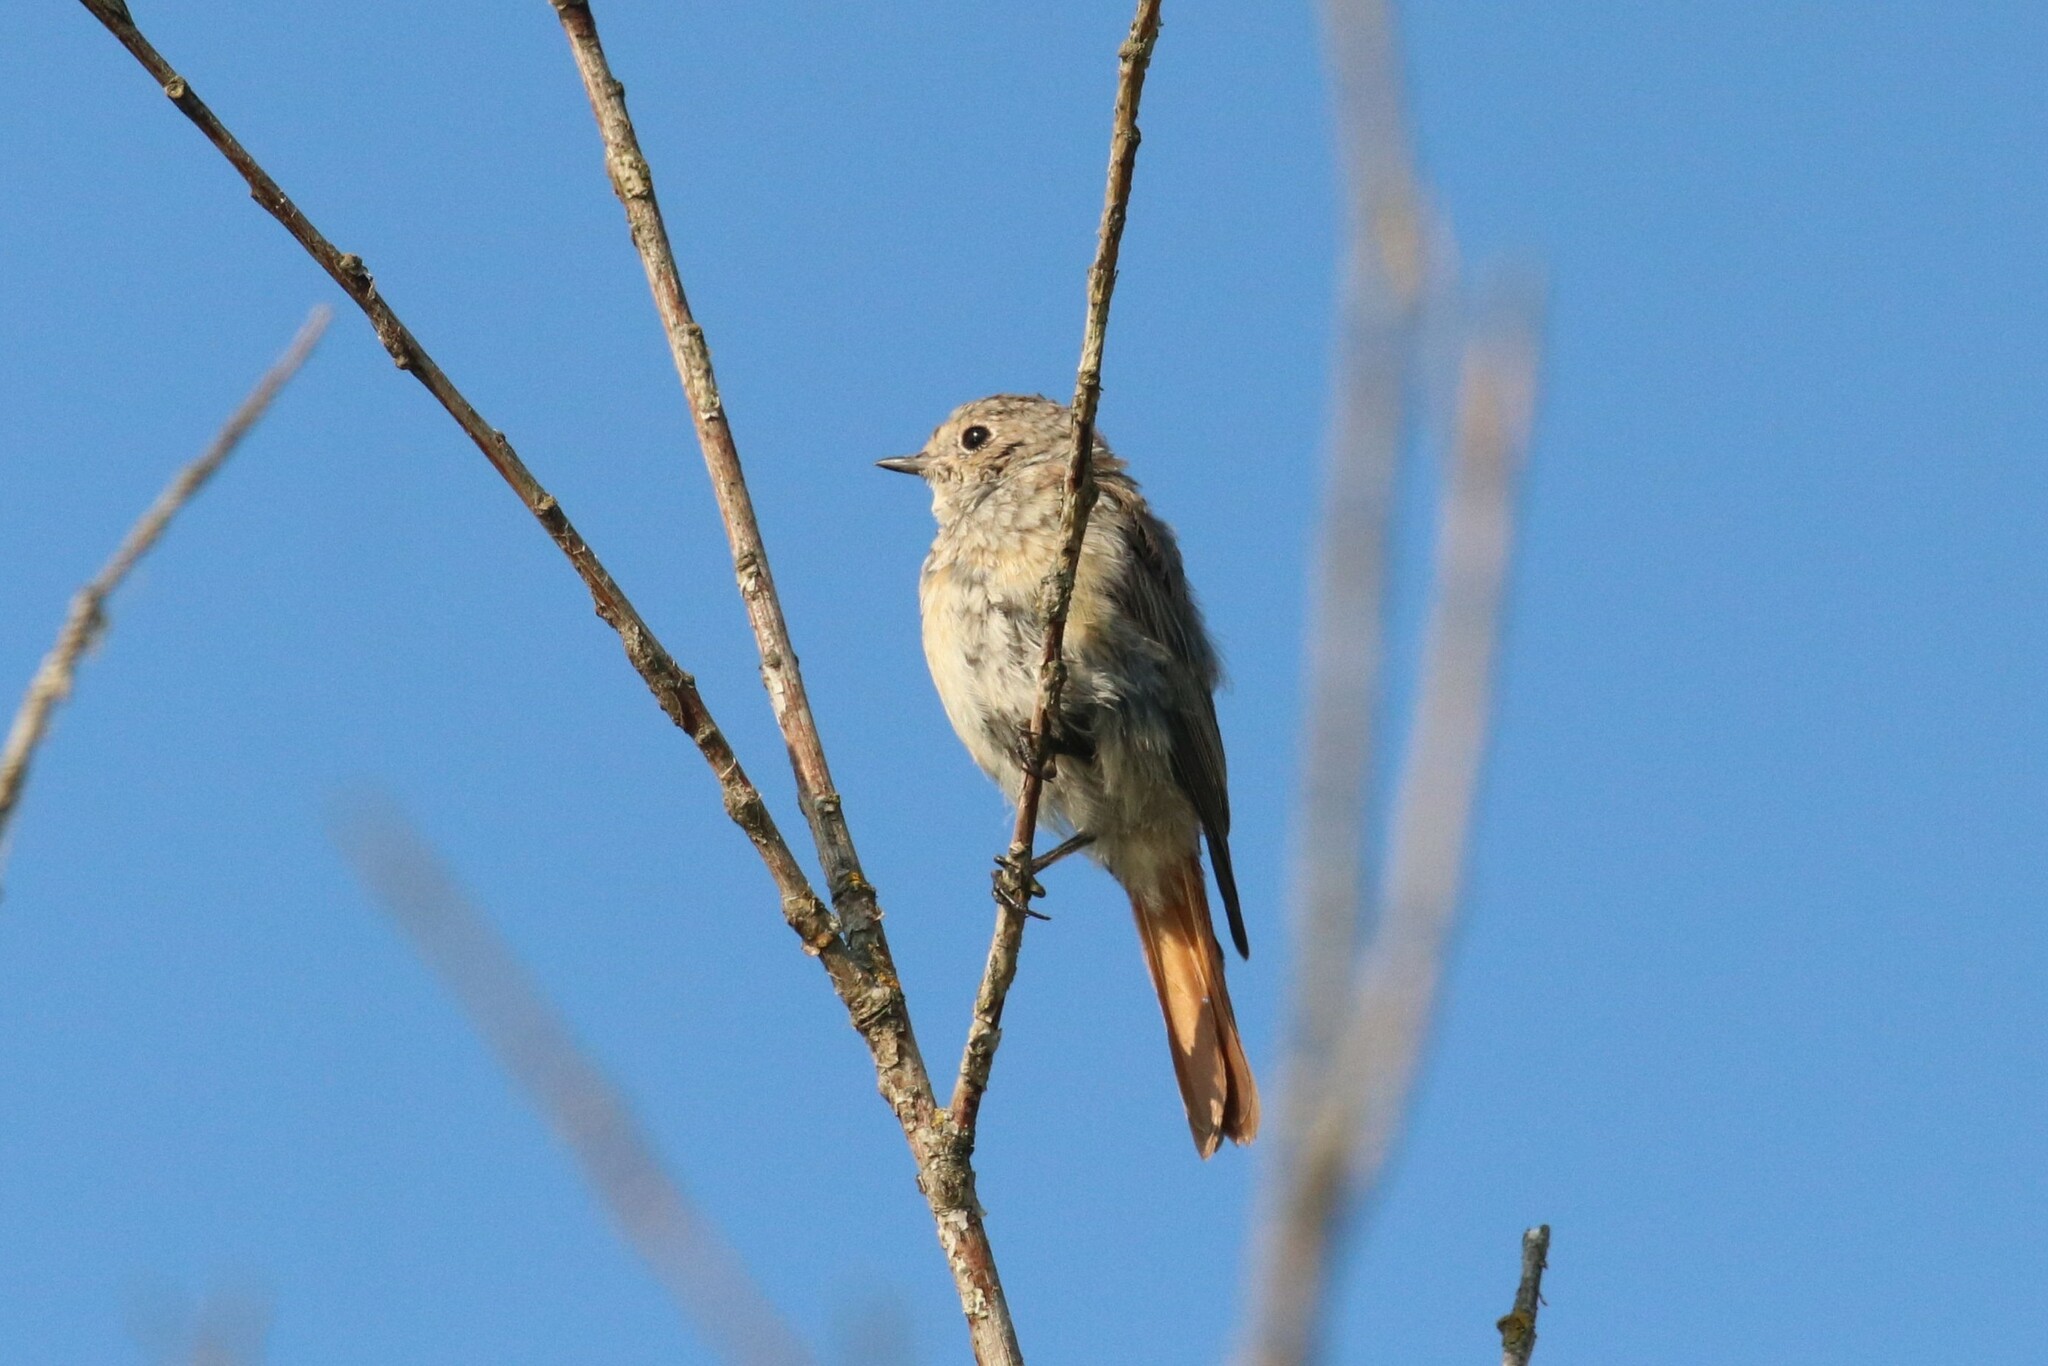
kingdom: Animalia
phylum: Chordata
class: Aves
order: Passeriformes
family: Muscicapidae
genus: Phoenicurus
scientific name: Phoenicurus phoenicurus
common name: Common redstart
